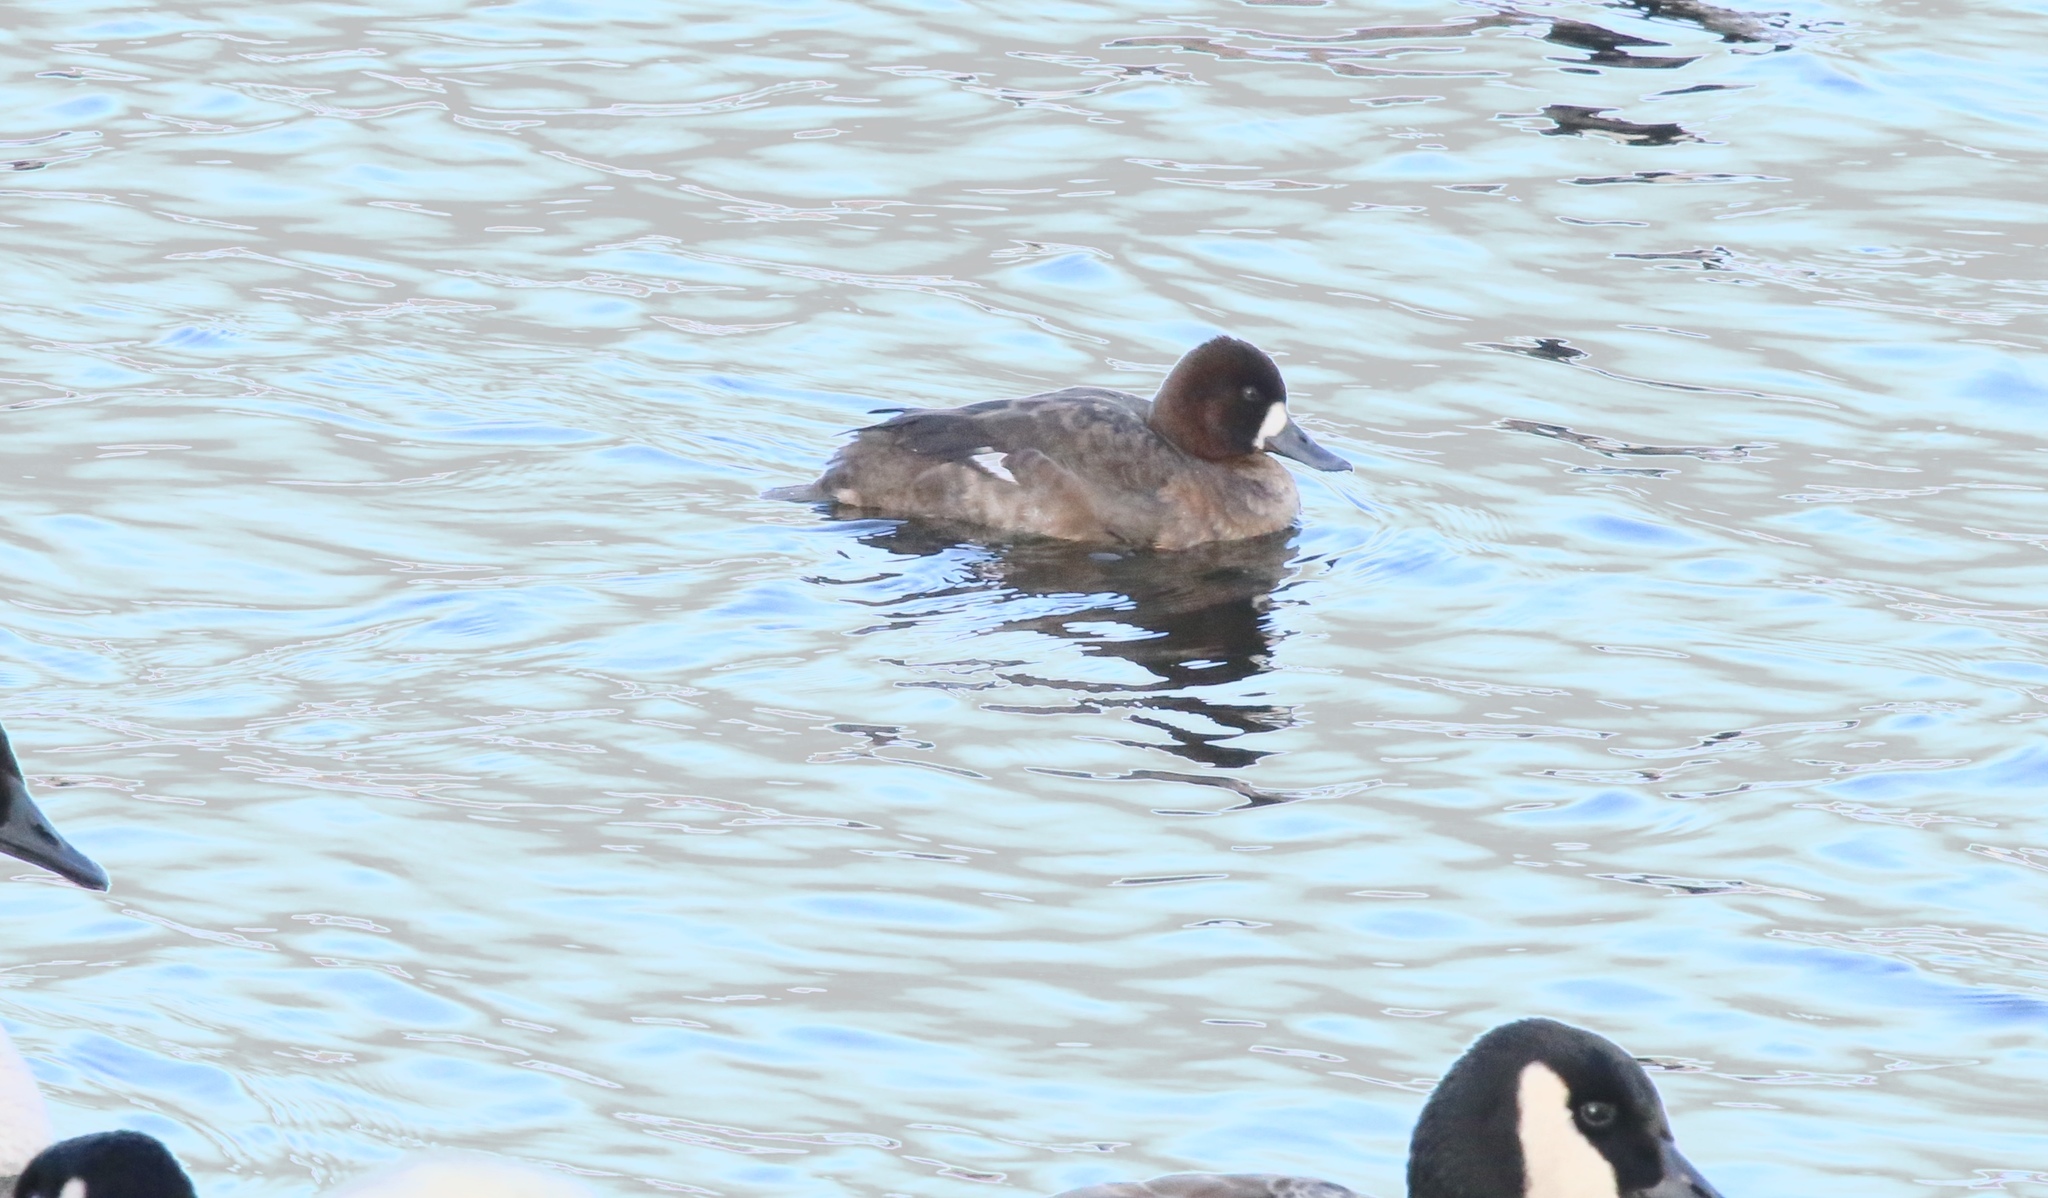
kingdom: Animalia
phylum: Chordata
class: Aves
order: Anseriformes
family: Anatidae
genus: Aythya
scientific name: Aythya affinis
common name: Lesser scaup
